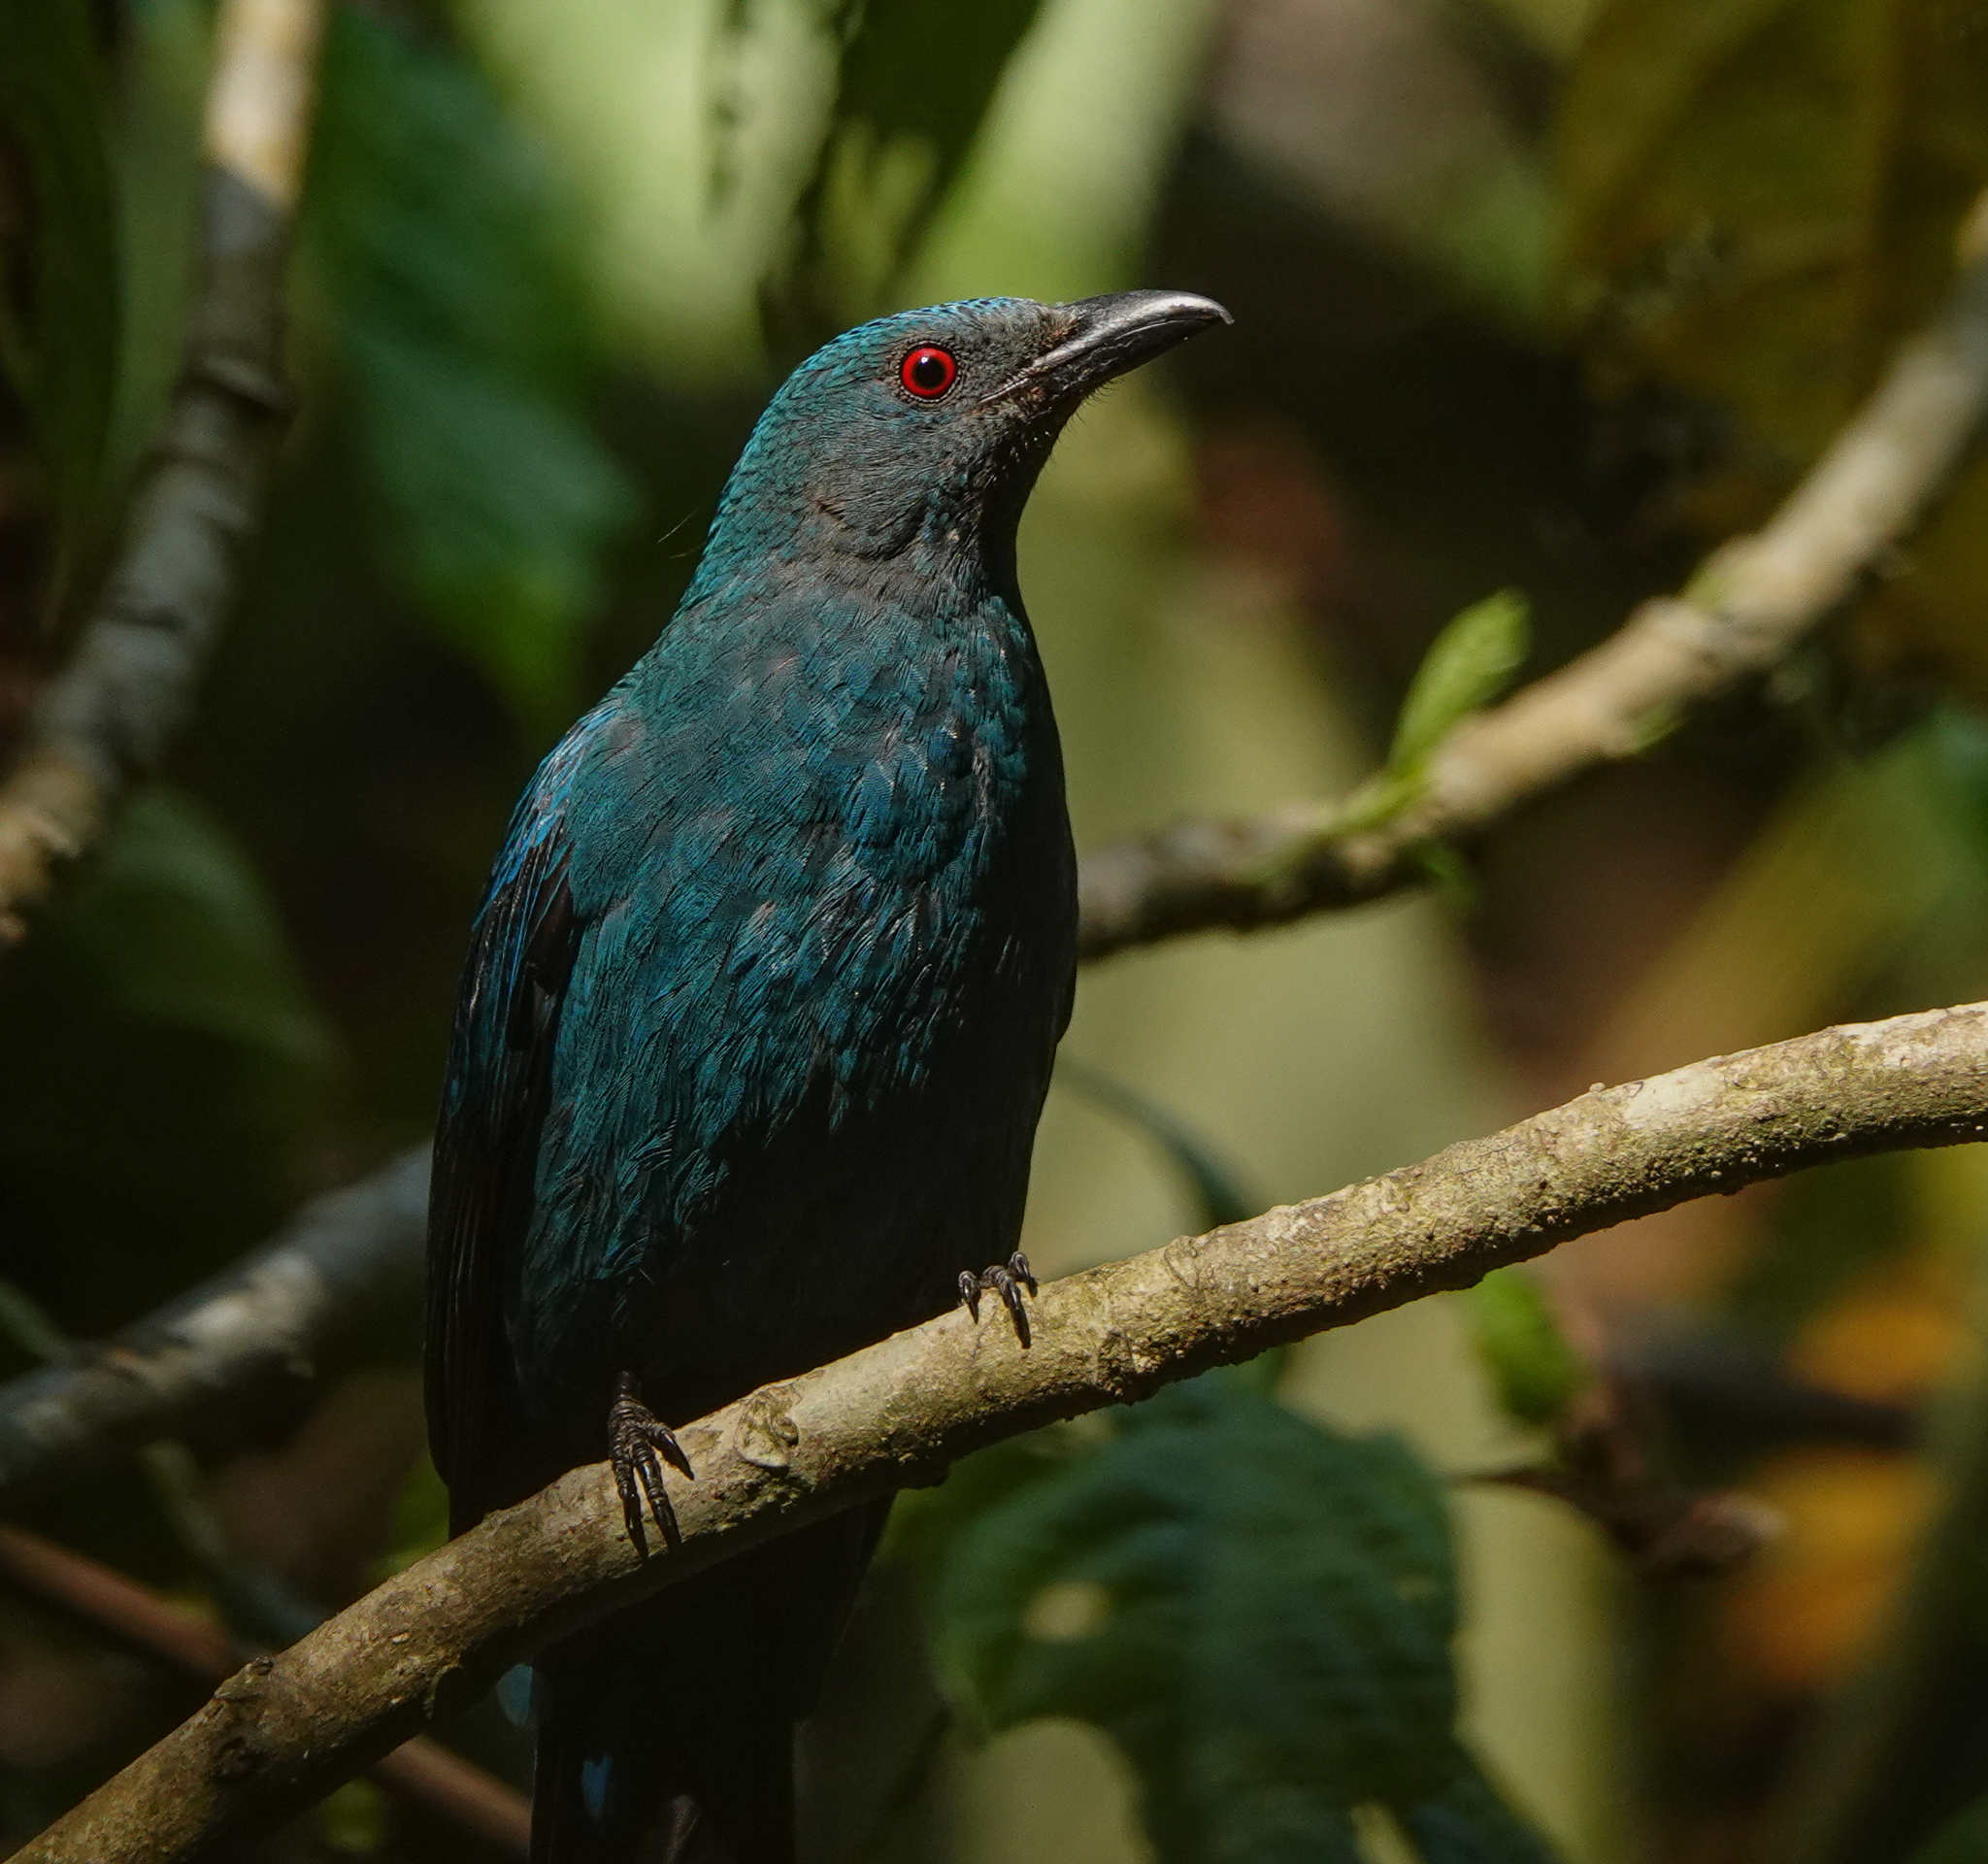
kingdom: Animalia
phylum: Chordata
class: Aves
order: Passeriformes
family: Irenidae
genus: Irena
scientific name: Irena puella
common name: Asian fairy-bluebird
